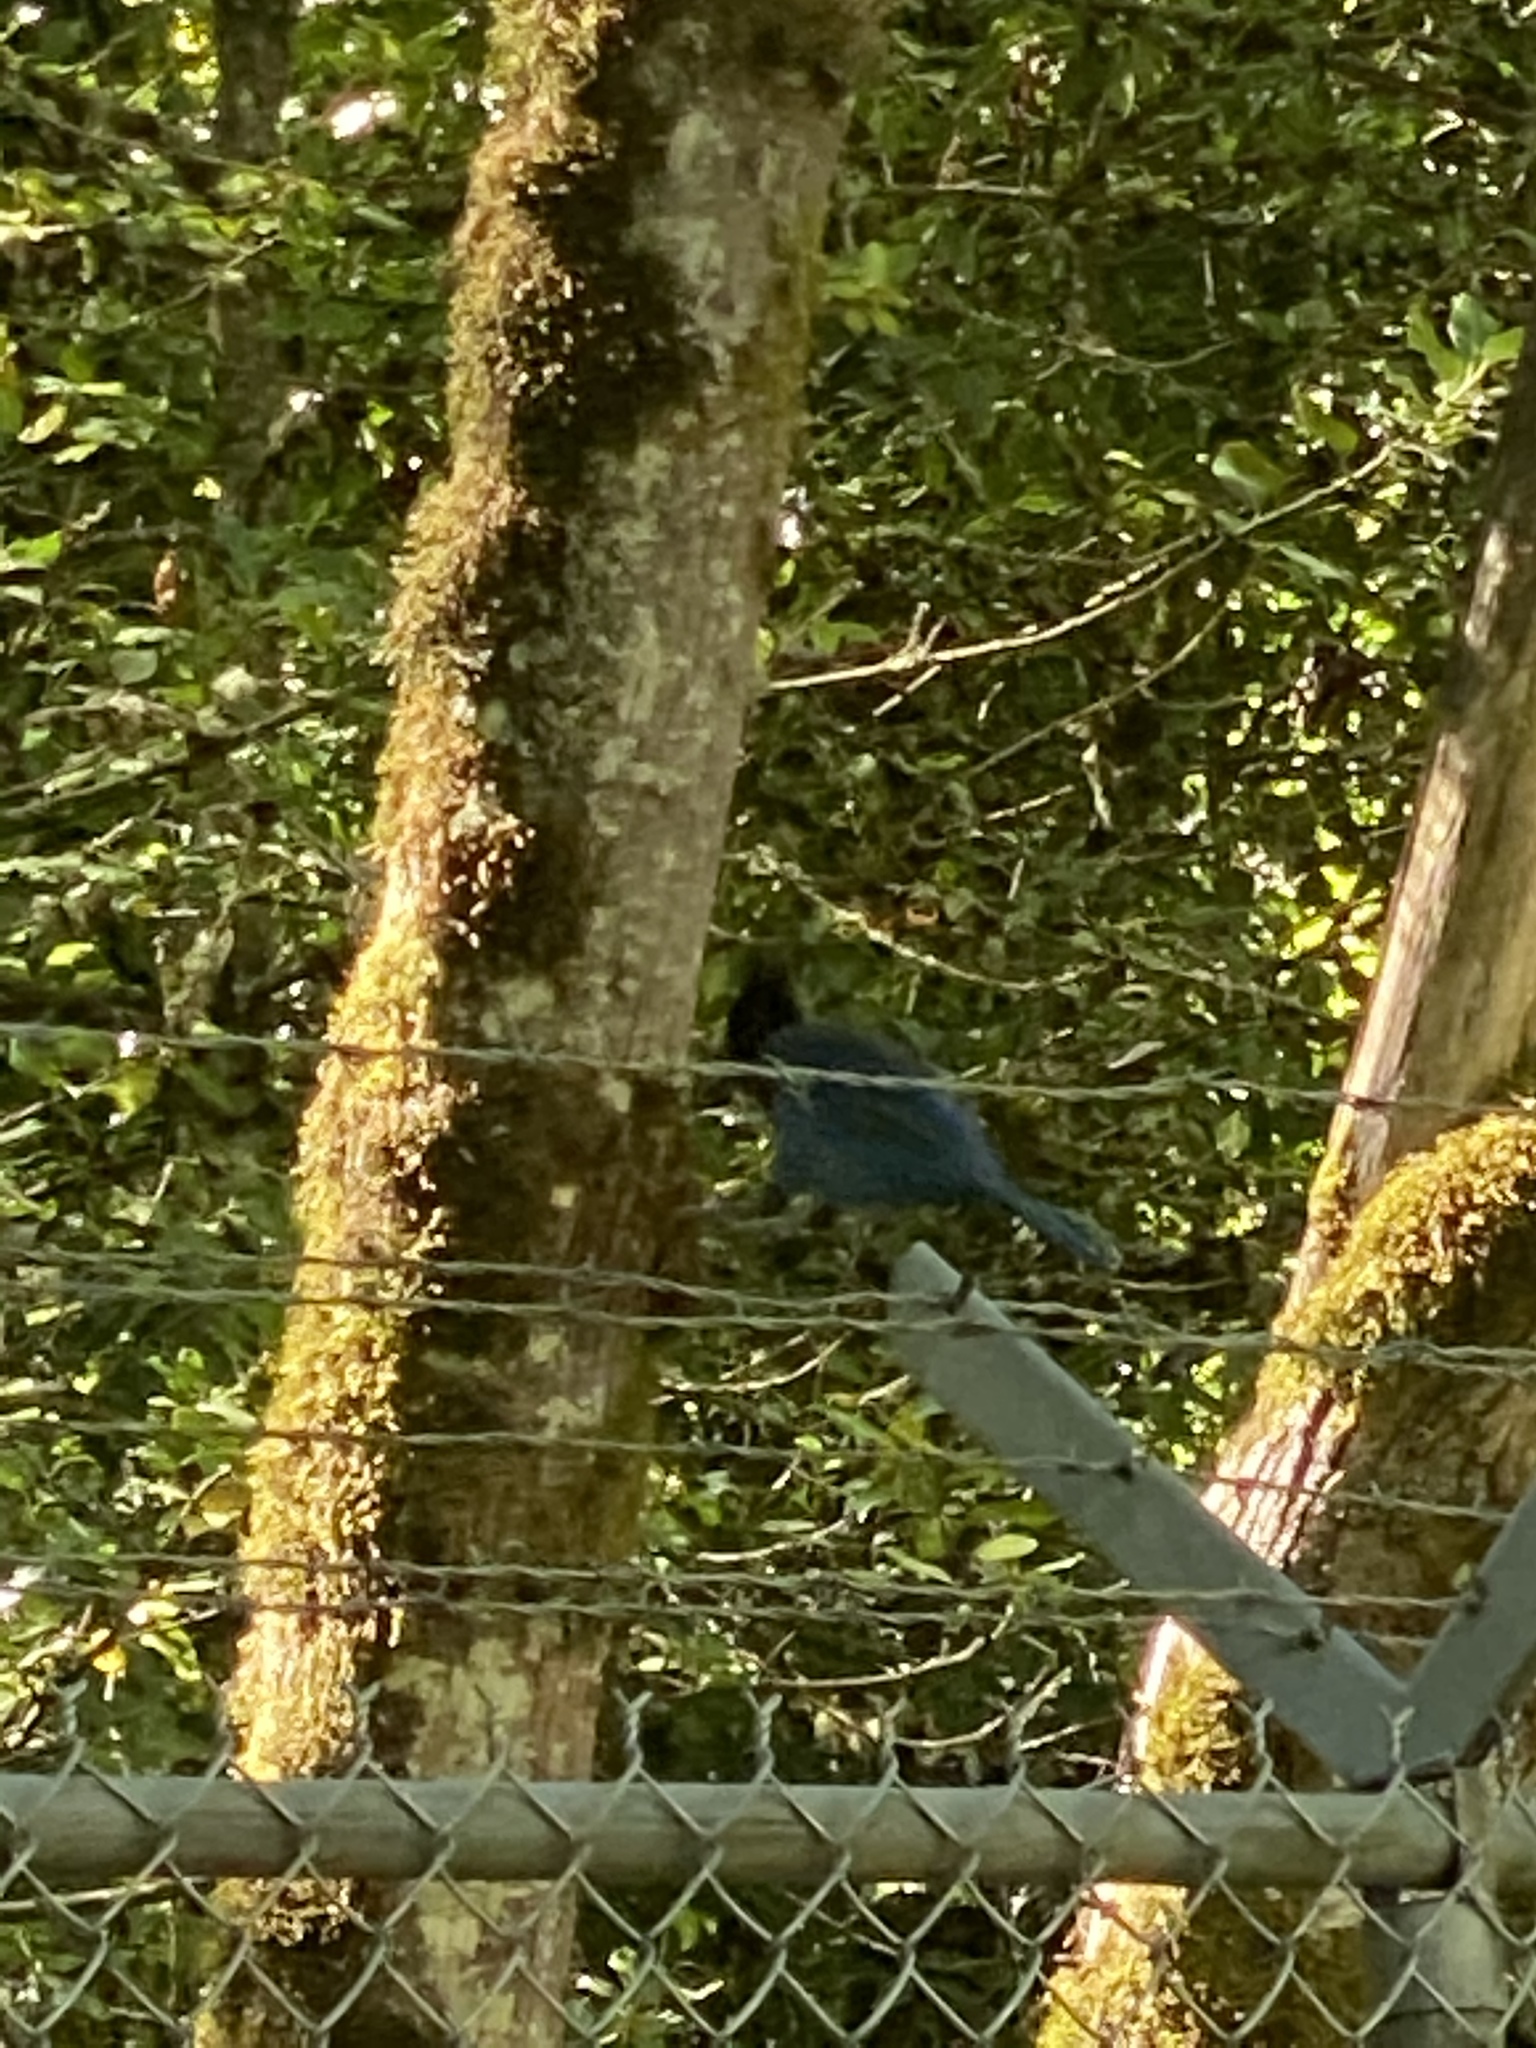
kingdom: Animalia
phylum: Chordata
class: Aves
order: Passeriformes
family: Corvidae
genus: Cyanocitta
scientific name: Cyanocitta stelleri
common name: Steller's jay
